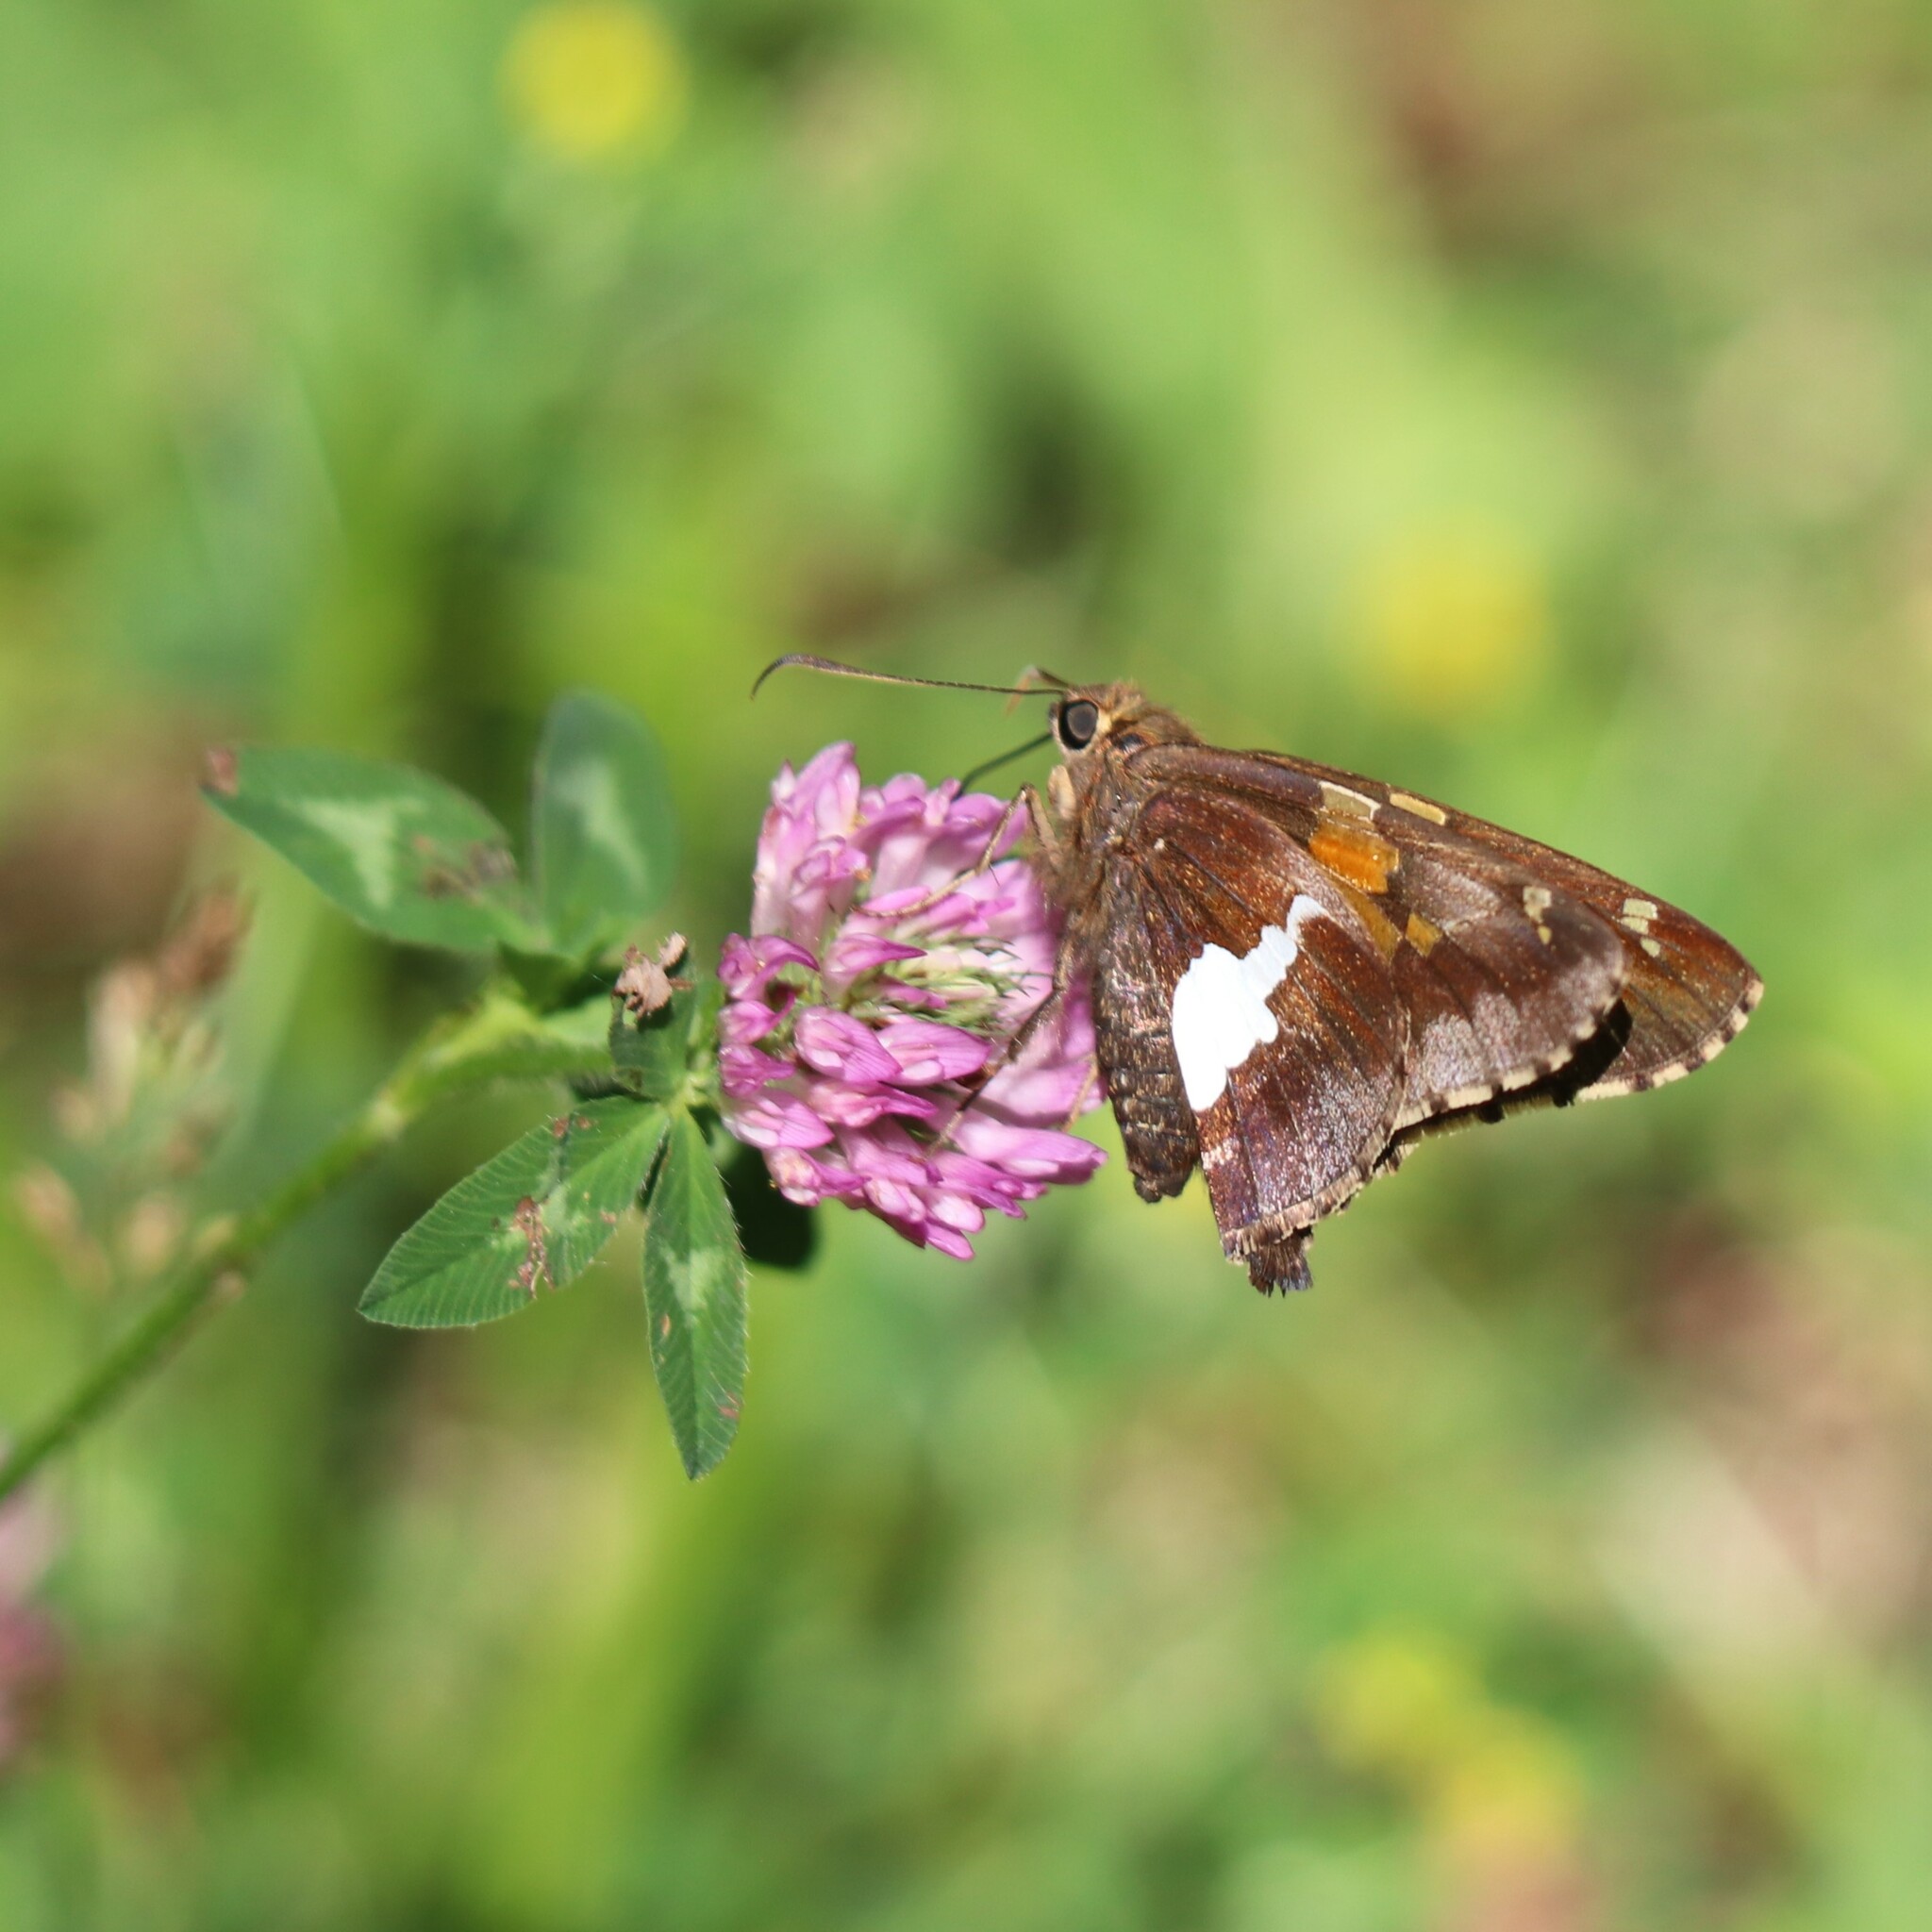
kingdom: Animalia
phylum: Arthropoda
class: Insecta
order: Lepidoptera
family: Hesperiidae
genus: Epargyreus
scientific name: Epargyreus clarus
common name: Silver-spotted skipper
